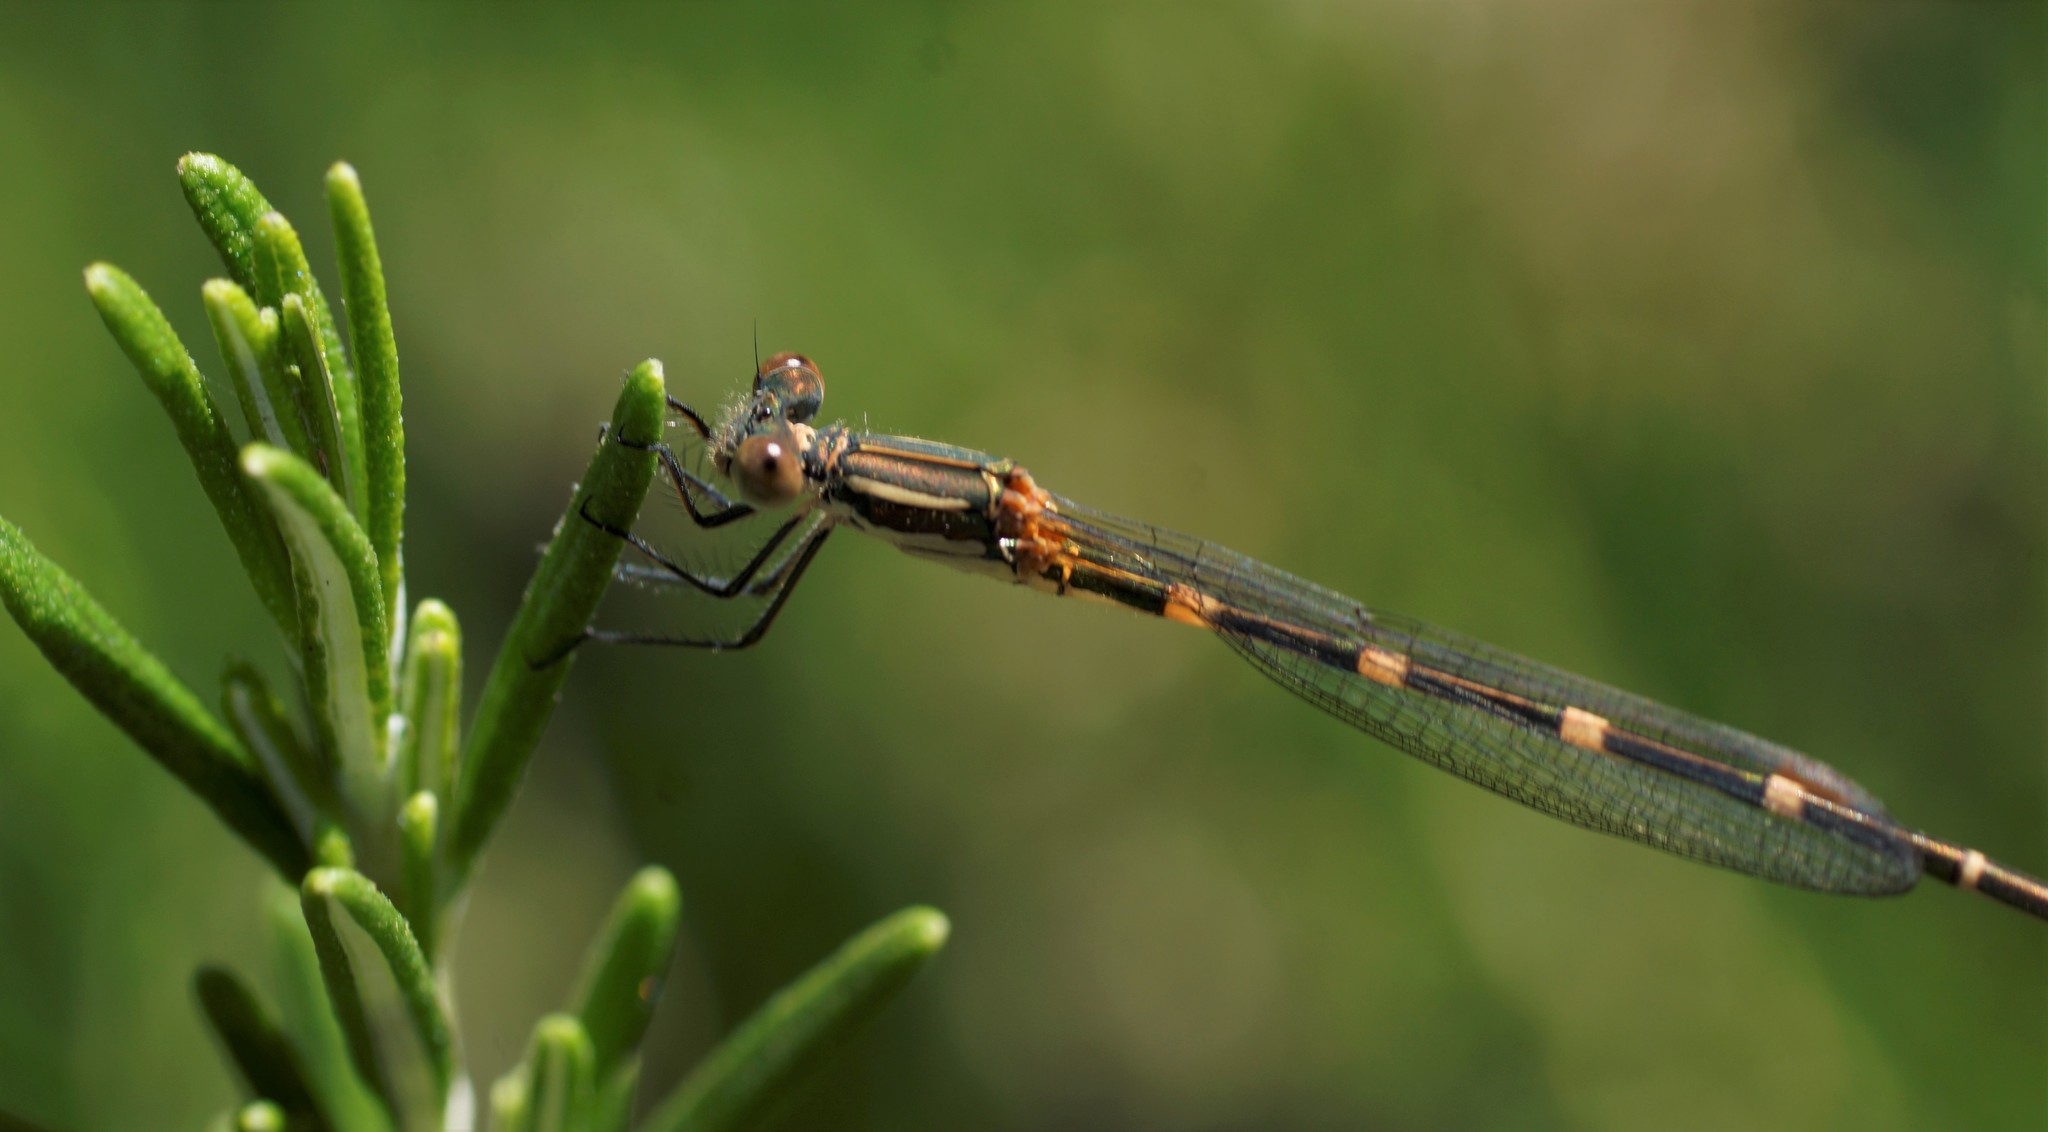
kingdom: Animalia
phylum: Arthropoda
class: Insecta
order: Odonata
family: Lestidae
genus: Austrolestes
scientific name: Austrolestes leda
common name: Wandering ringtail
